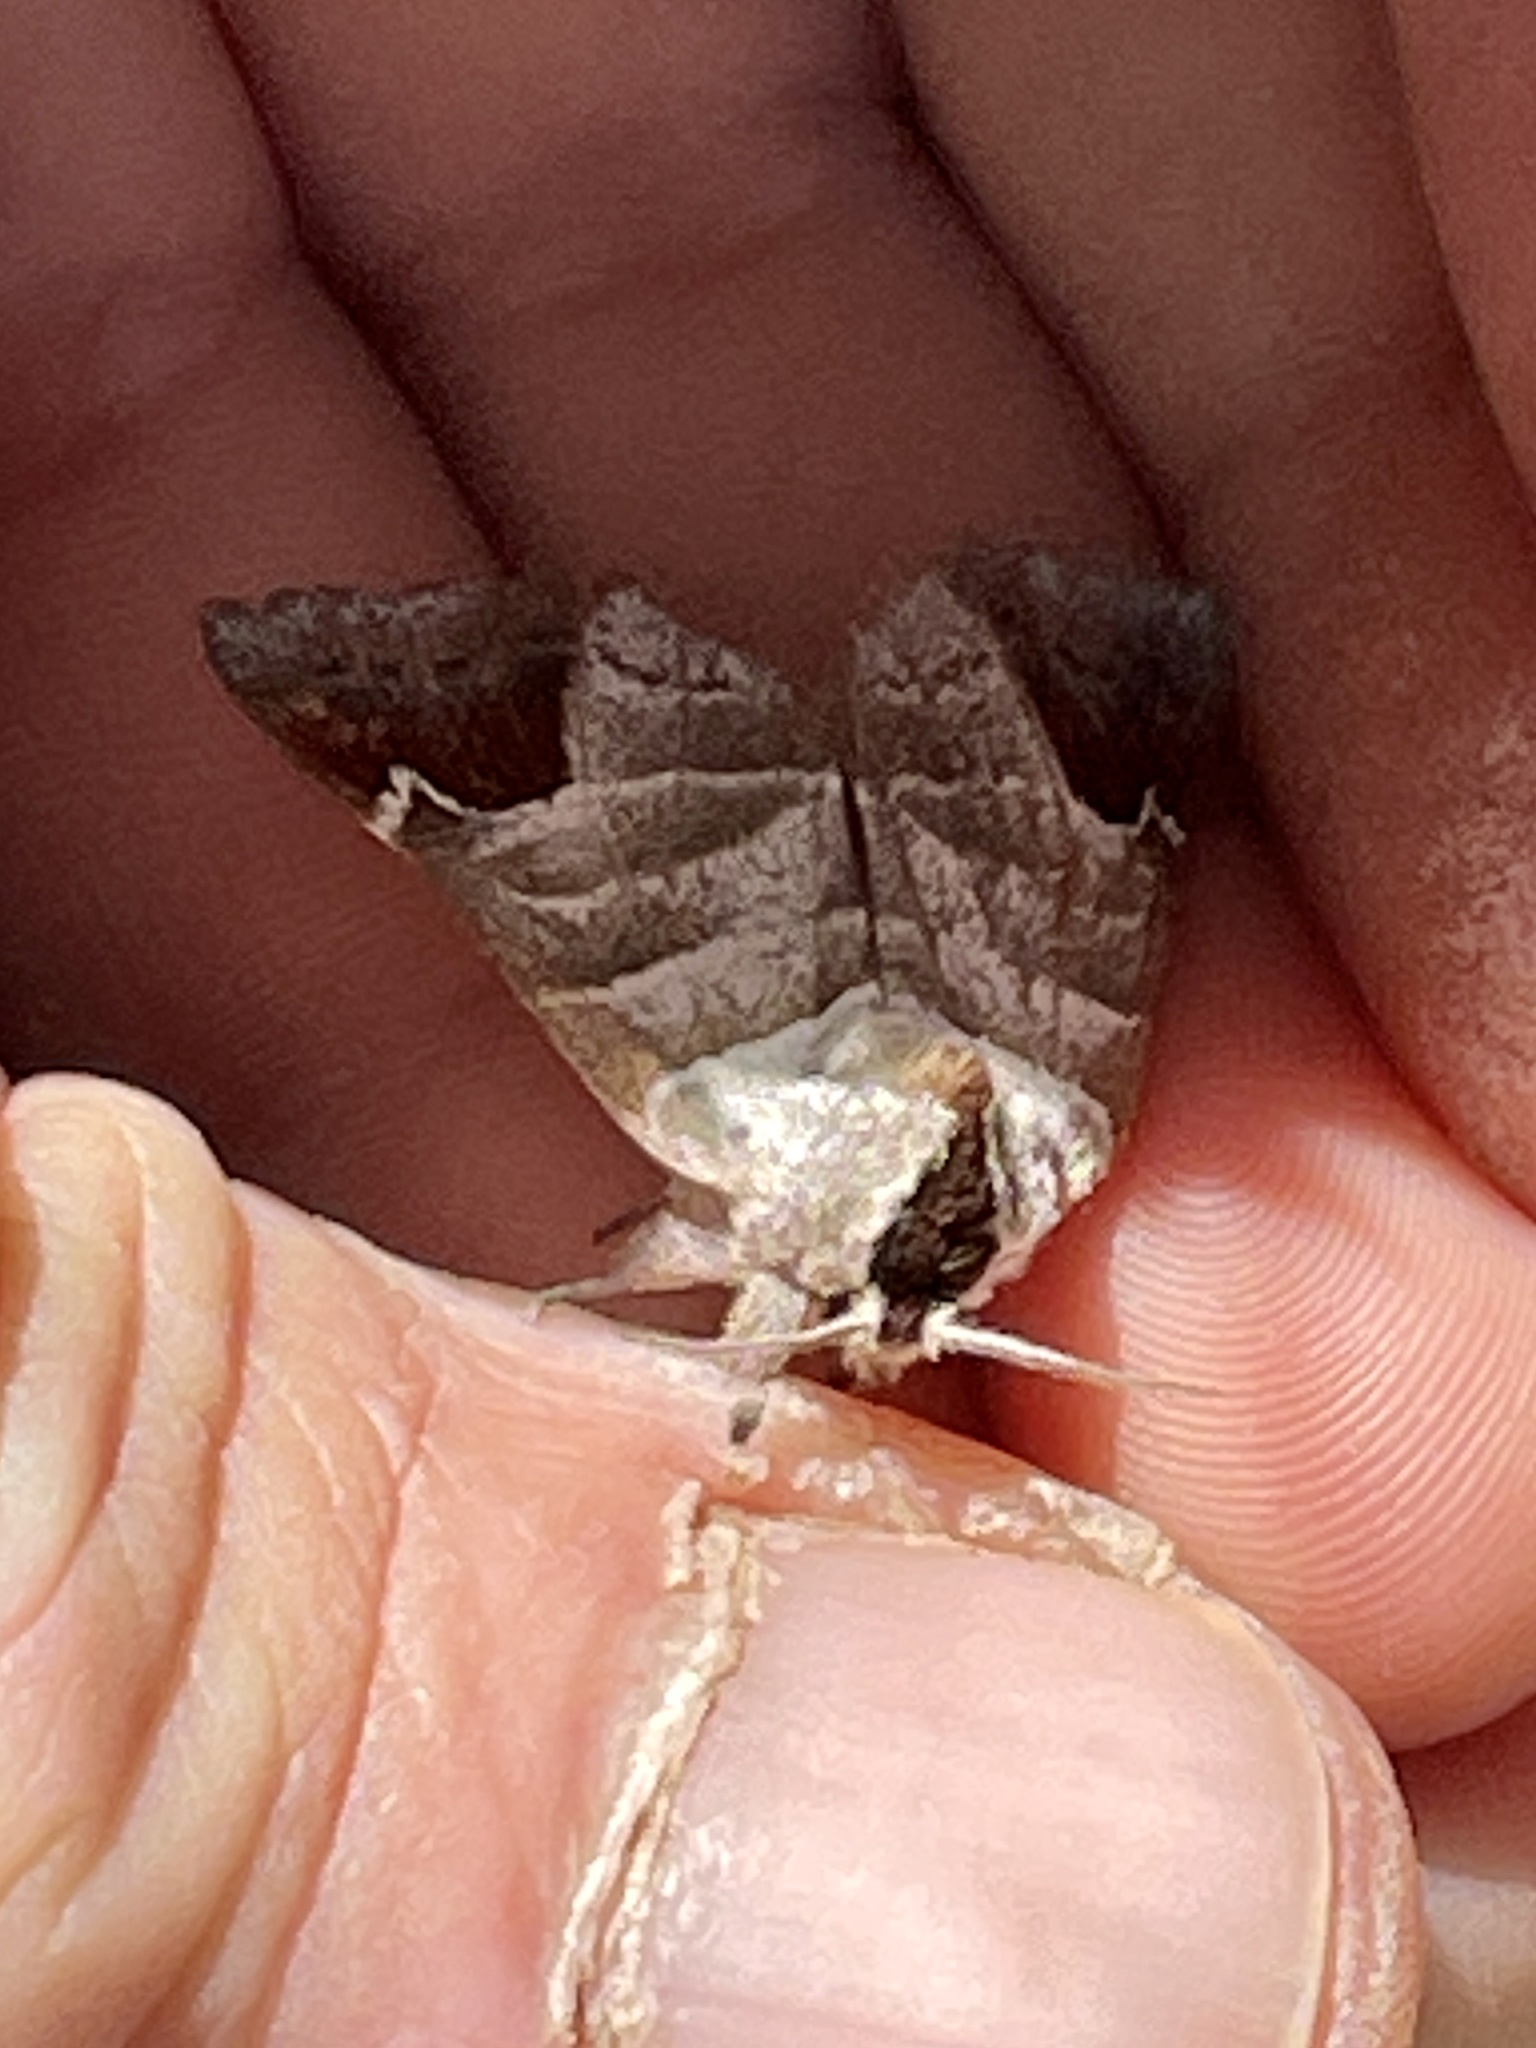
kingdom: Animalia
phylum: Arthropoda
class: Insecta
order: Lepidoptera
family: Notodontidae
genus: Clostera
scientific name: Clostera albosigma
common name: Sigmoid prominent
